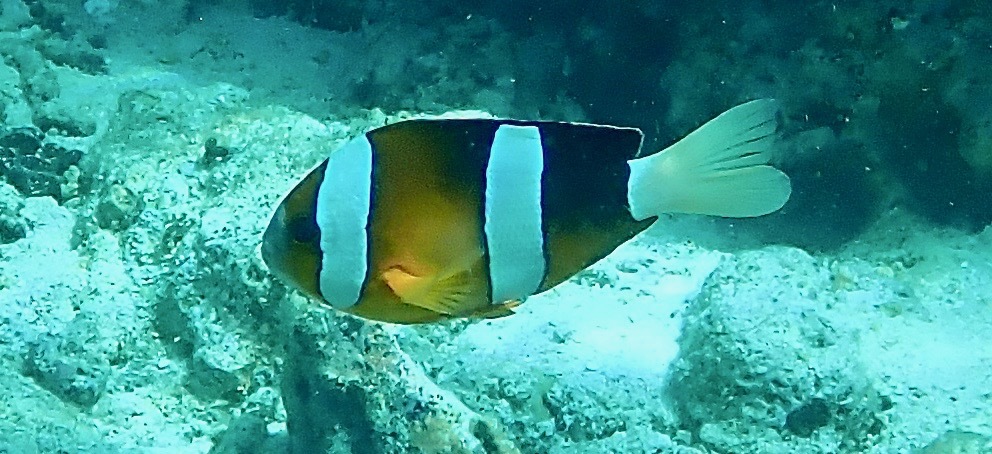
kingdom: Animalia
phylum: Chordata
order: Perciformes
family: Pomacentridae
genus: Amphiprion
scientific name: Amphiprion clarkii
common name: Clark's anemonefish
